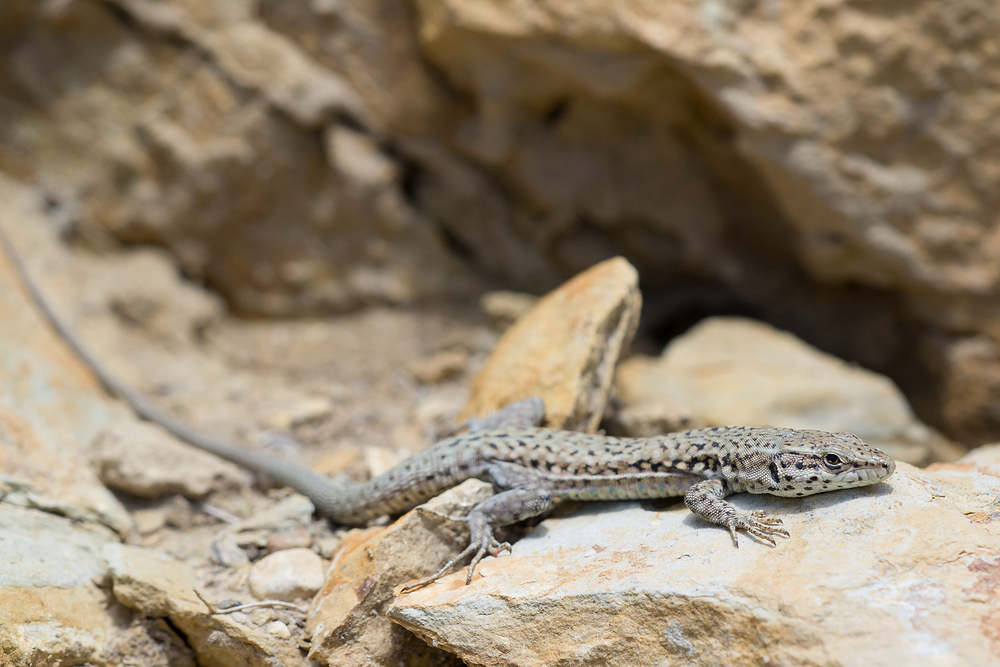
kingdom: Animalia
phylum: Chordata
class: Squamata
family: Lacertidae
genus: Podarcis
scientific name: Podarcis liolepis
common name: Catalonian wall lizard
